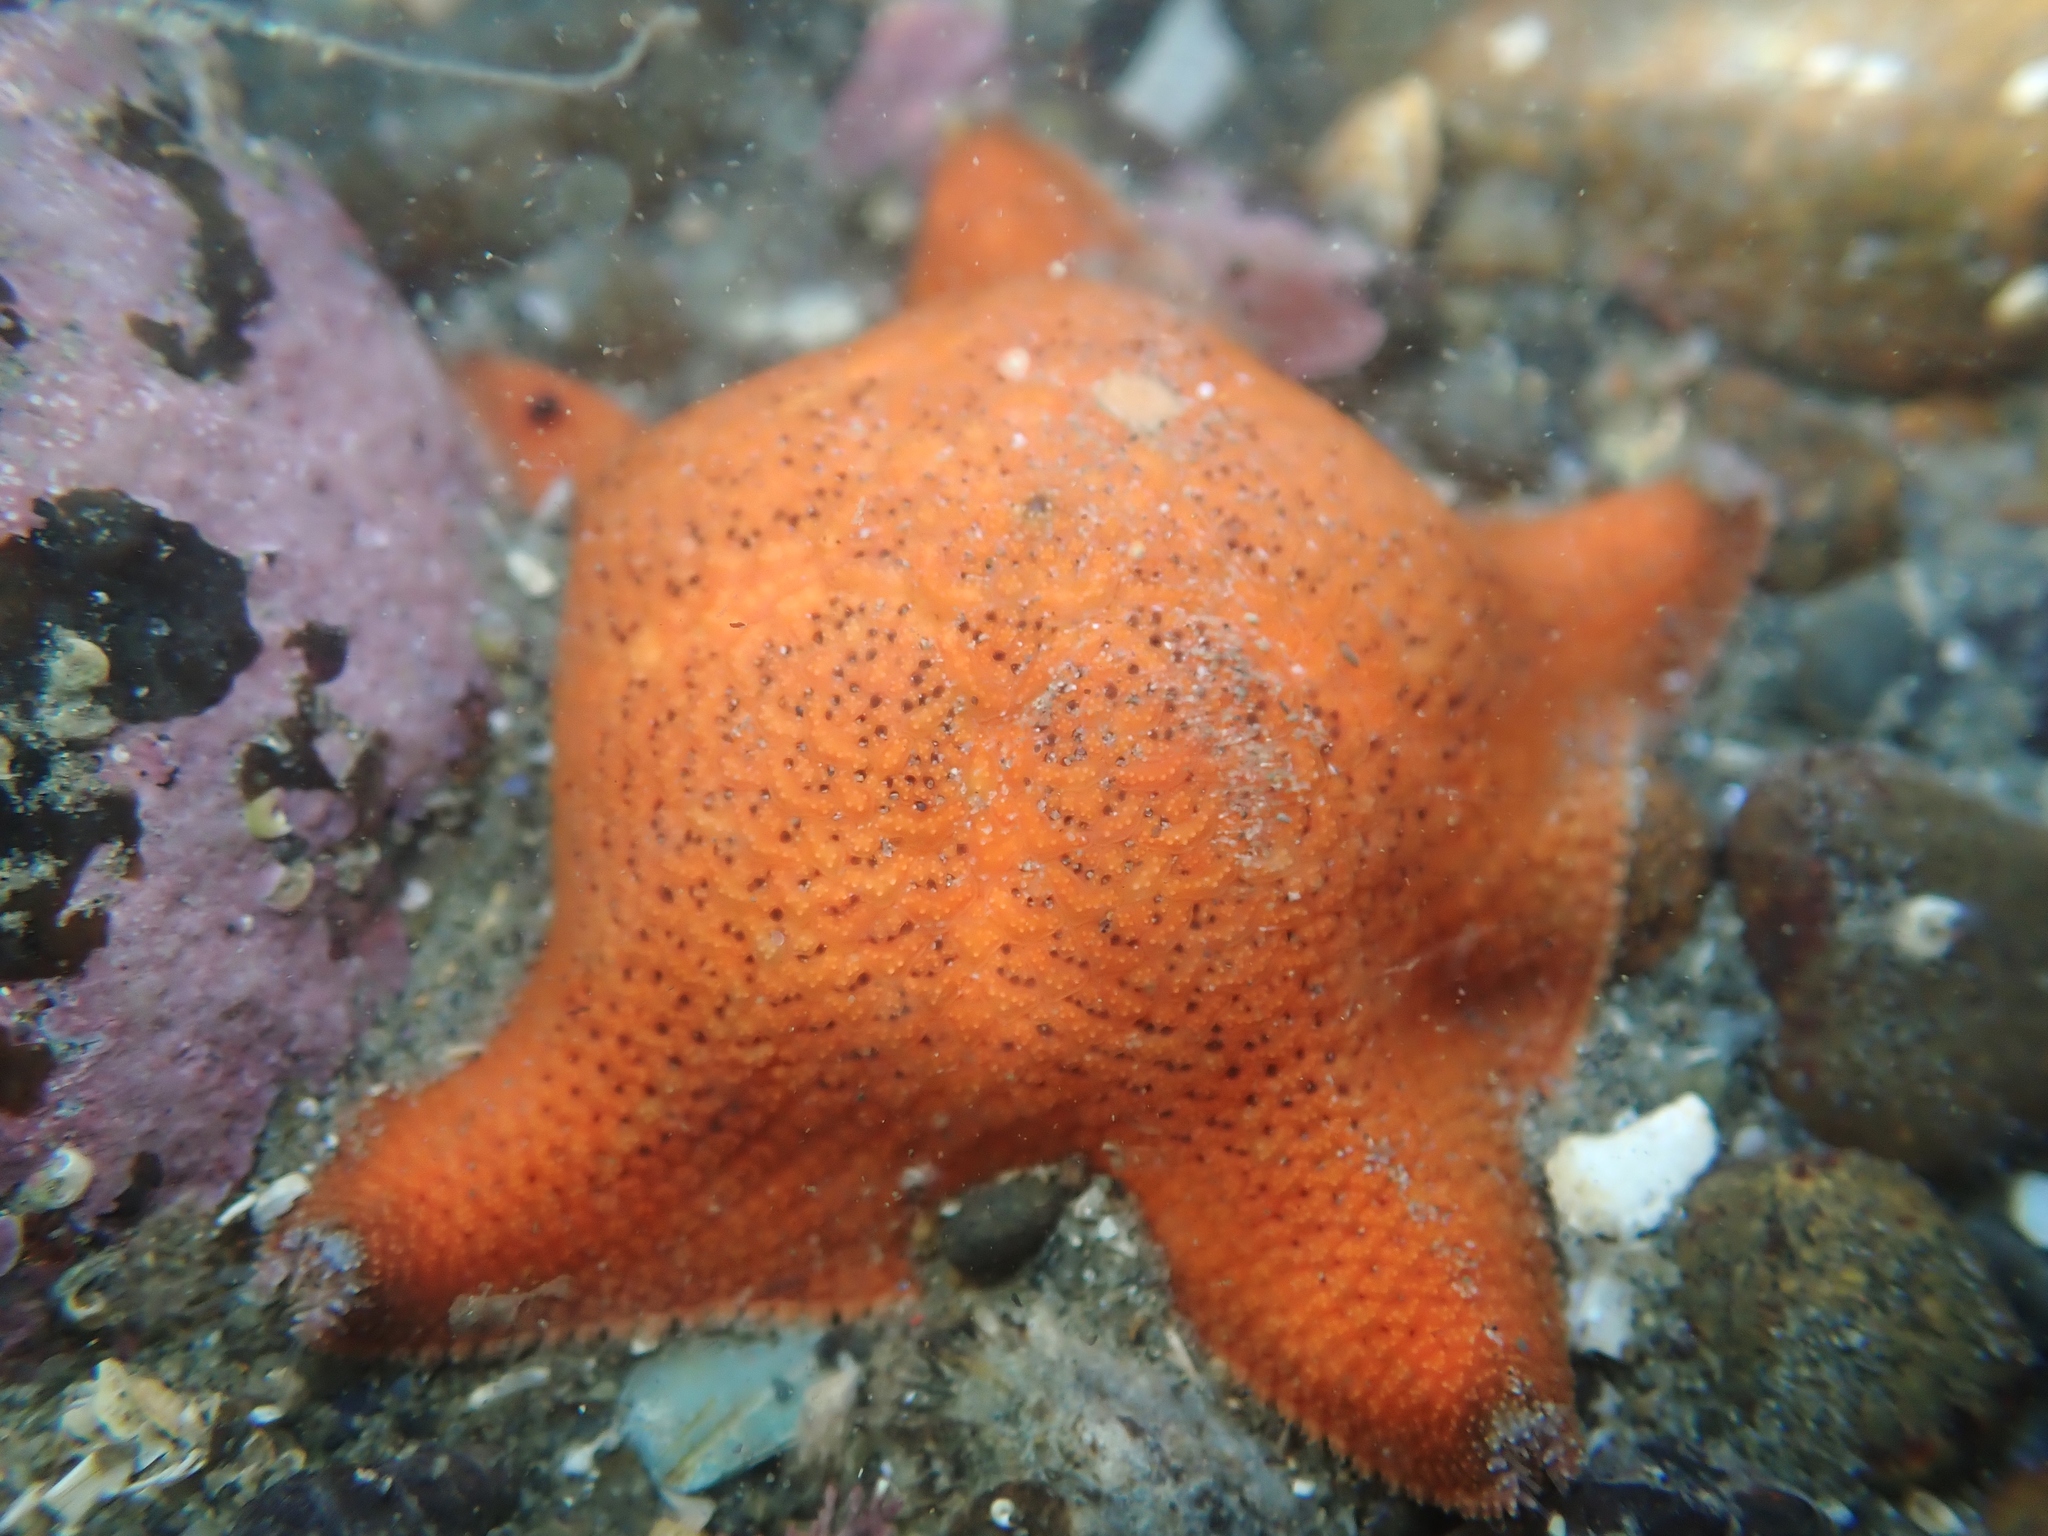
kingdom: Animalia
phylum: Echinodermata
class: Asteroidea
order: Valvatida
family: Asterinidae
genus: Patiriella
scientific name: Patiriella regularis
